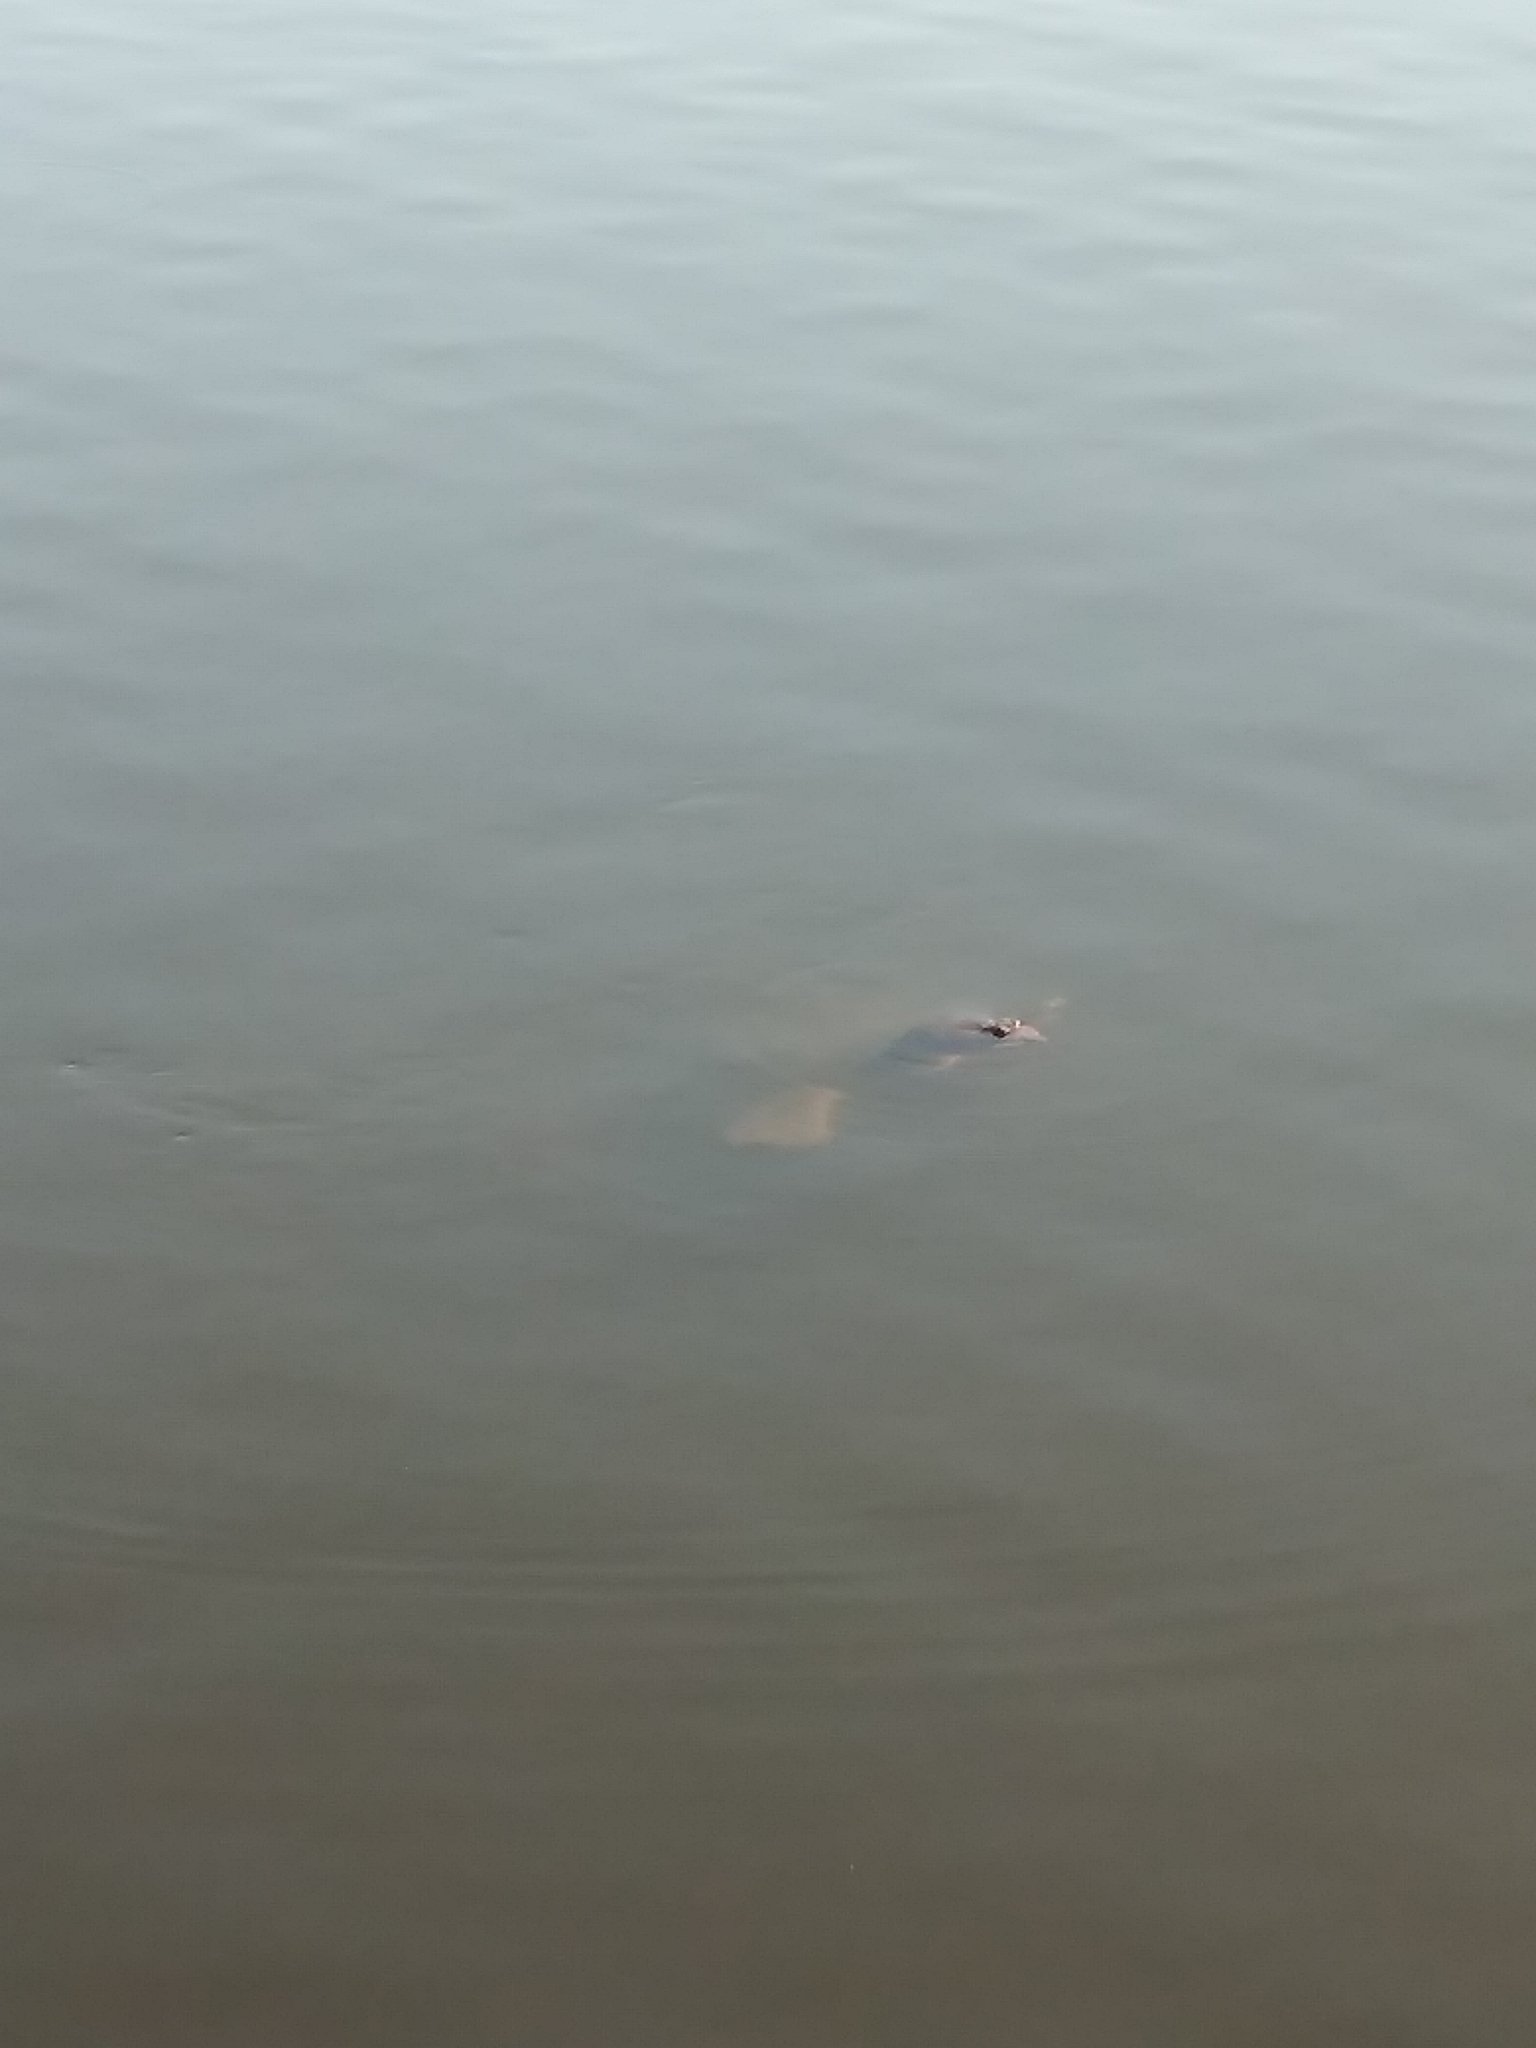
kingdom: Animalia
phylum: Chordata
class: Testudines
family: Trionychidae
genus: Apalone
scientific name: Apalone ferox
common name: Florida softshell turtle
